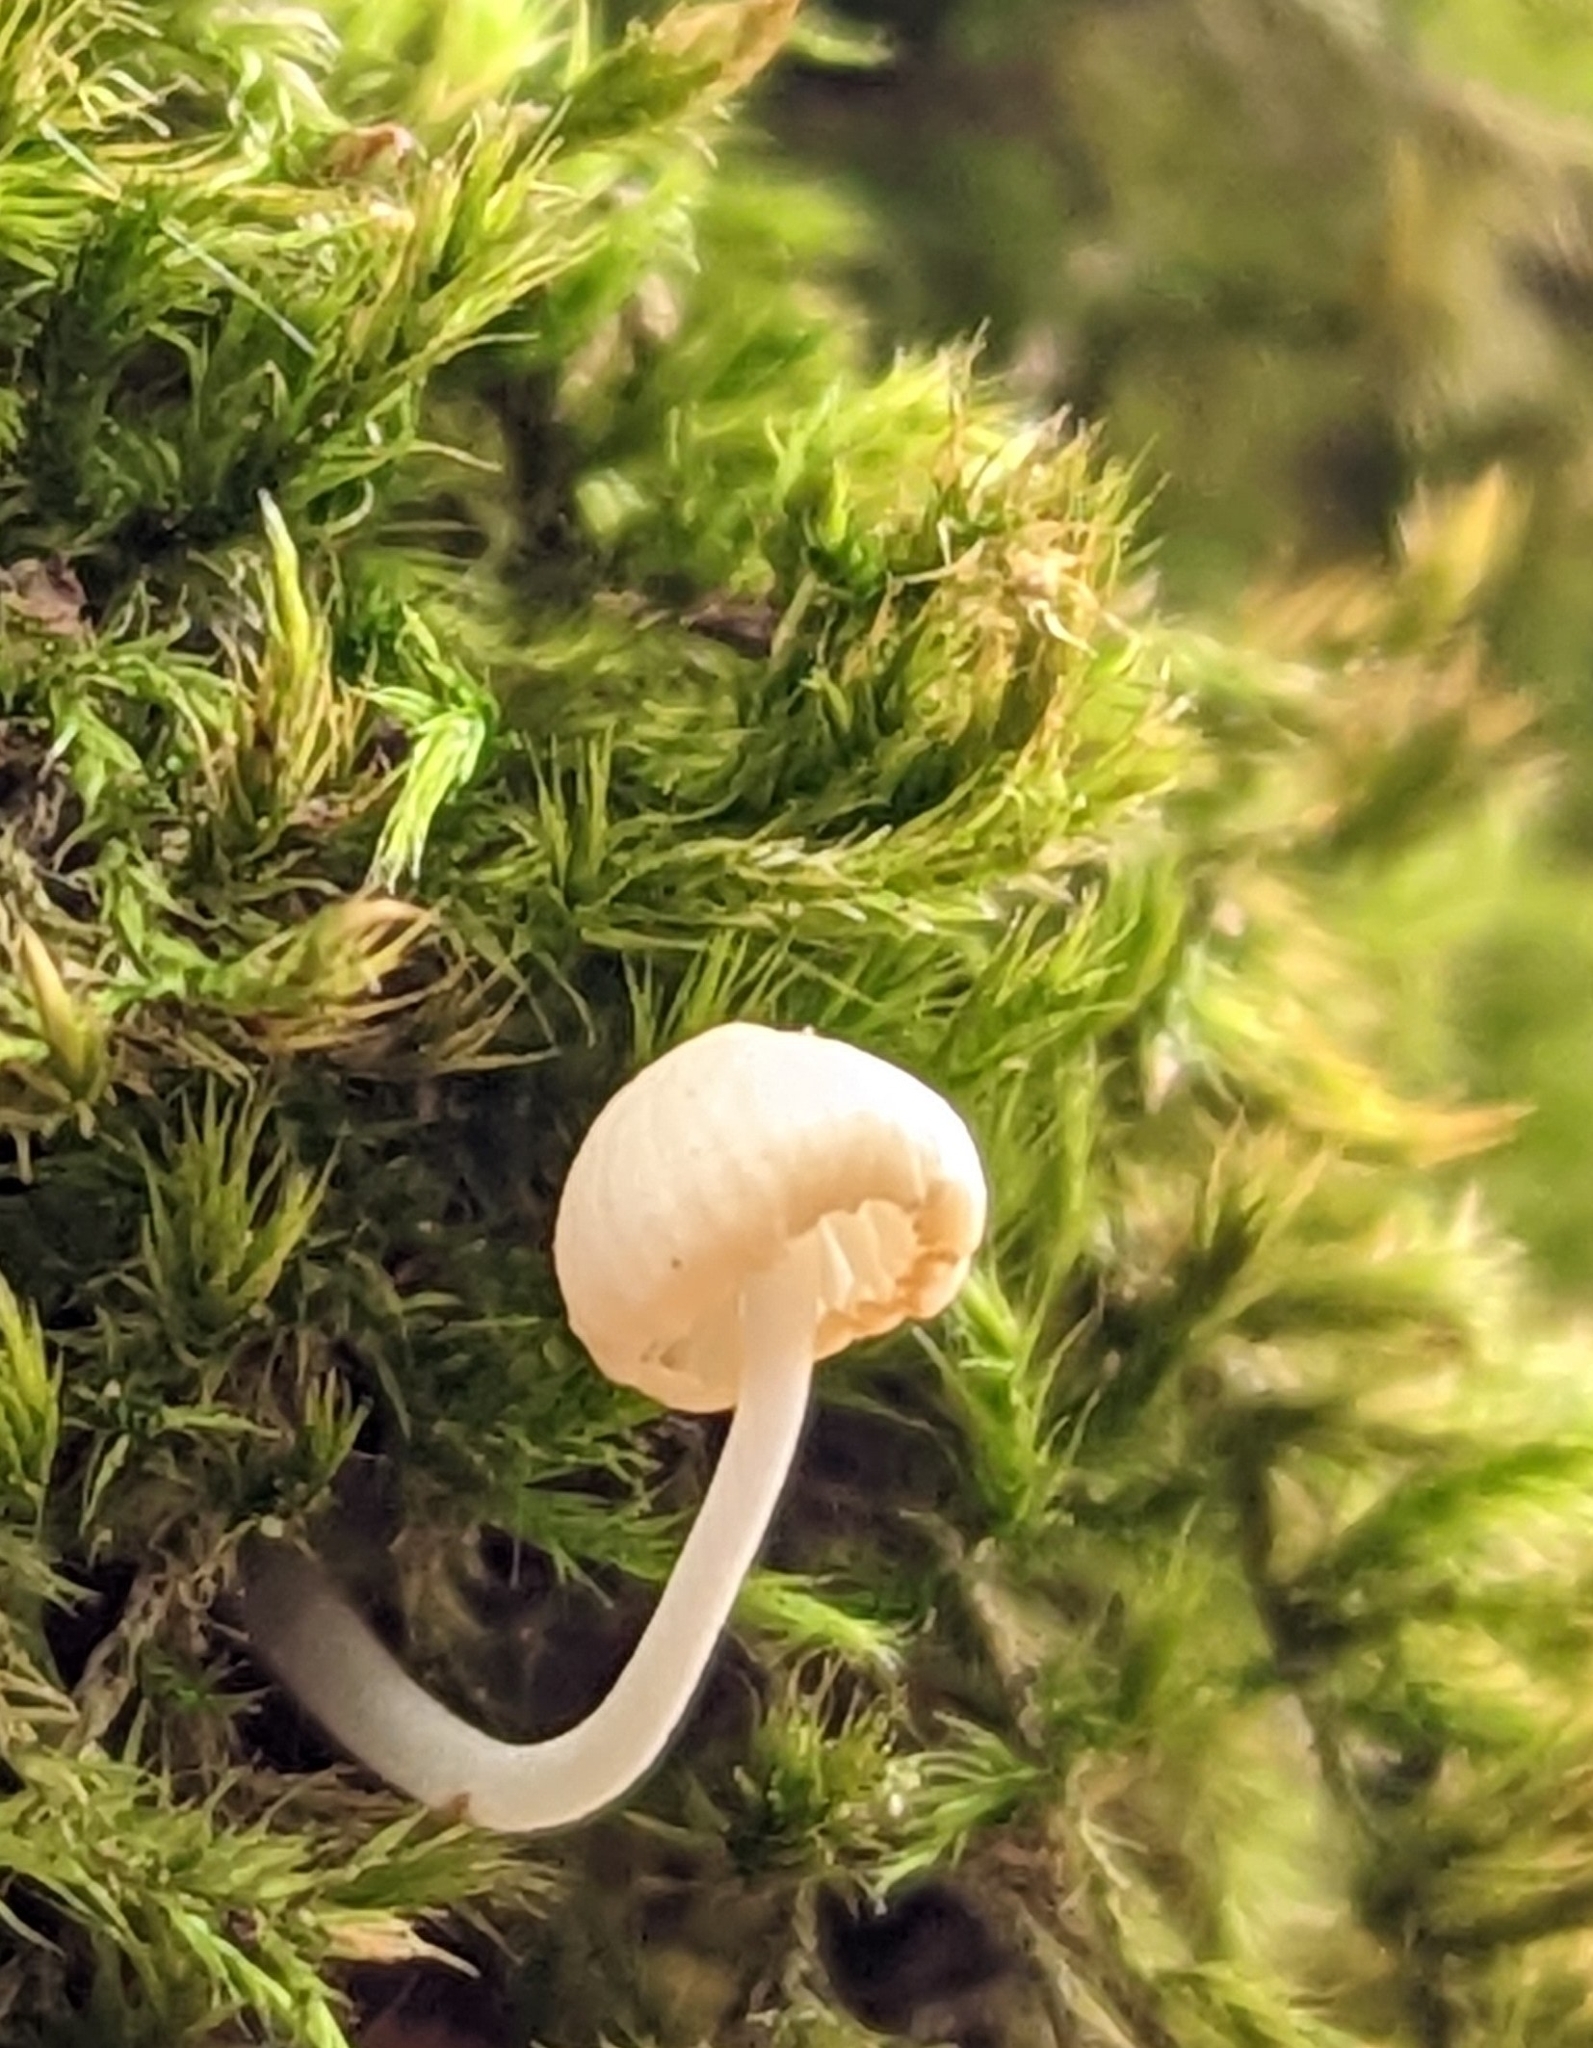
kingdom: Fungi
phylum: Basidiomycota
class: Agaricomycetes
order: Agaricales
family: Mycenaceae
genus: Mycena
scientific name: Mycena galericulata
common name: Bonnet mycena
